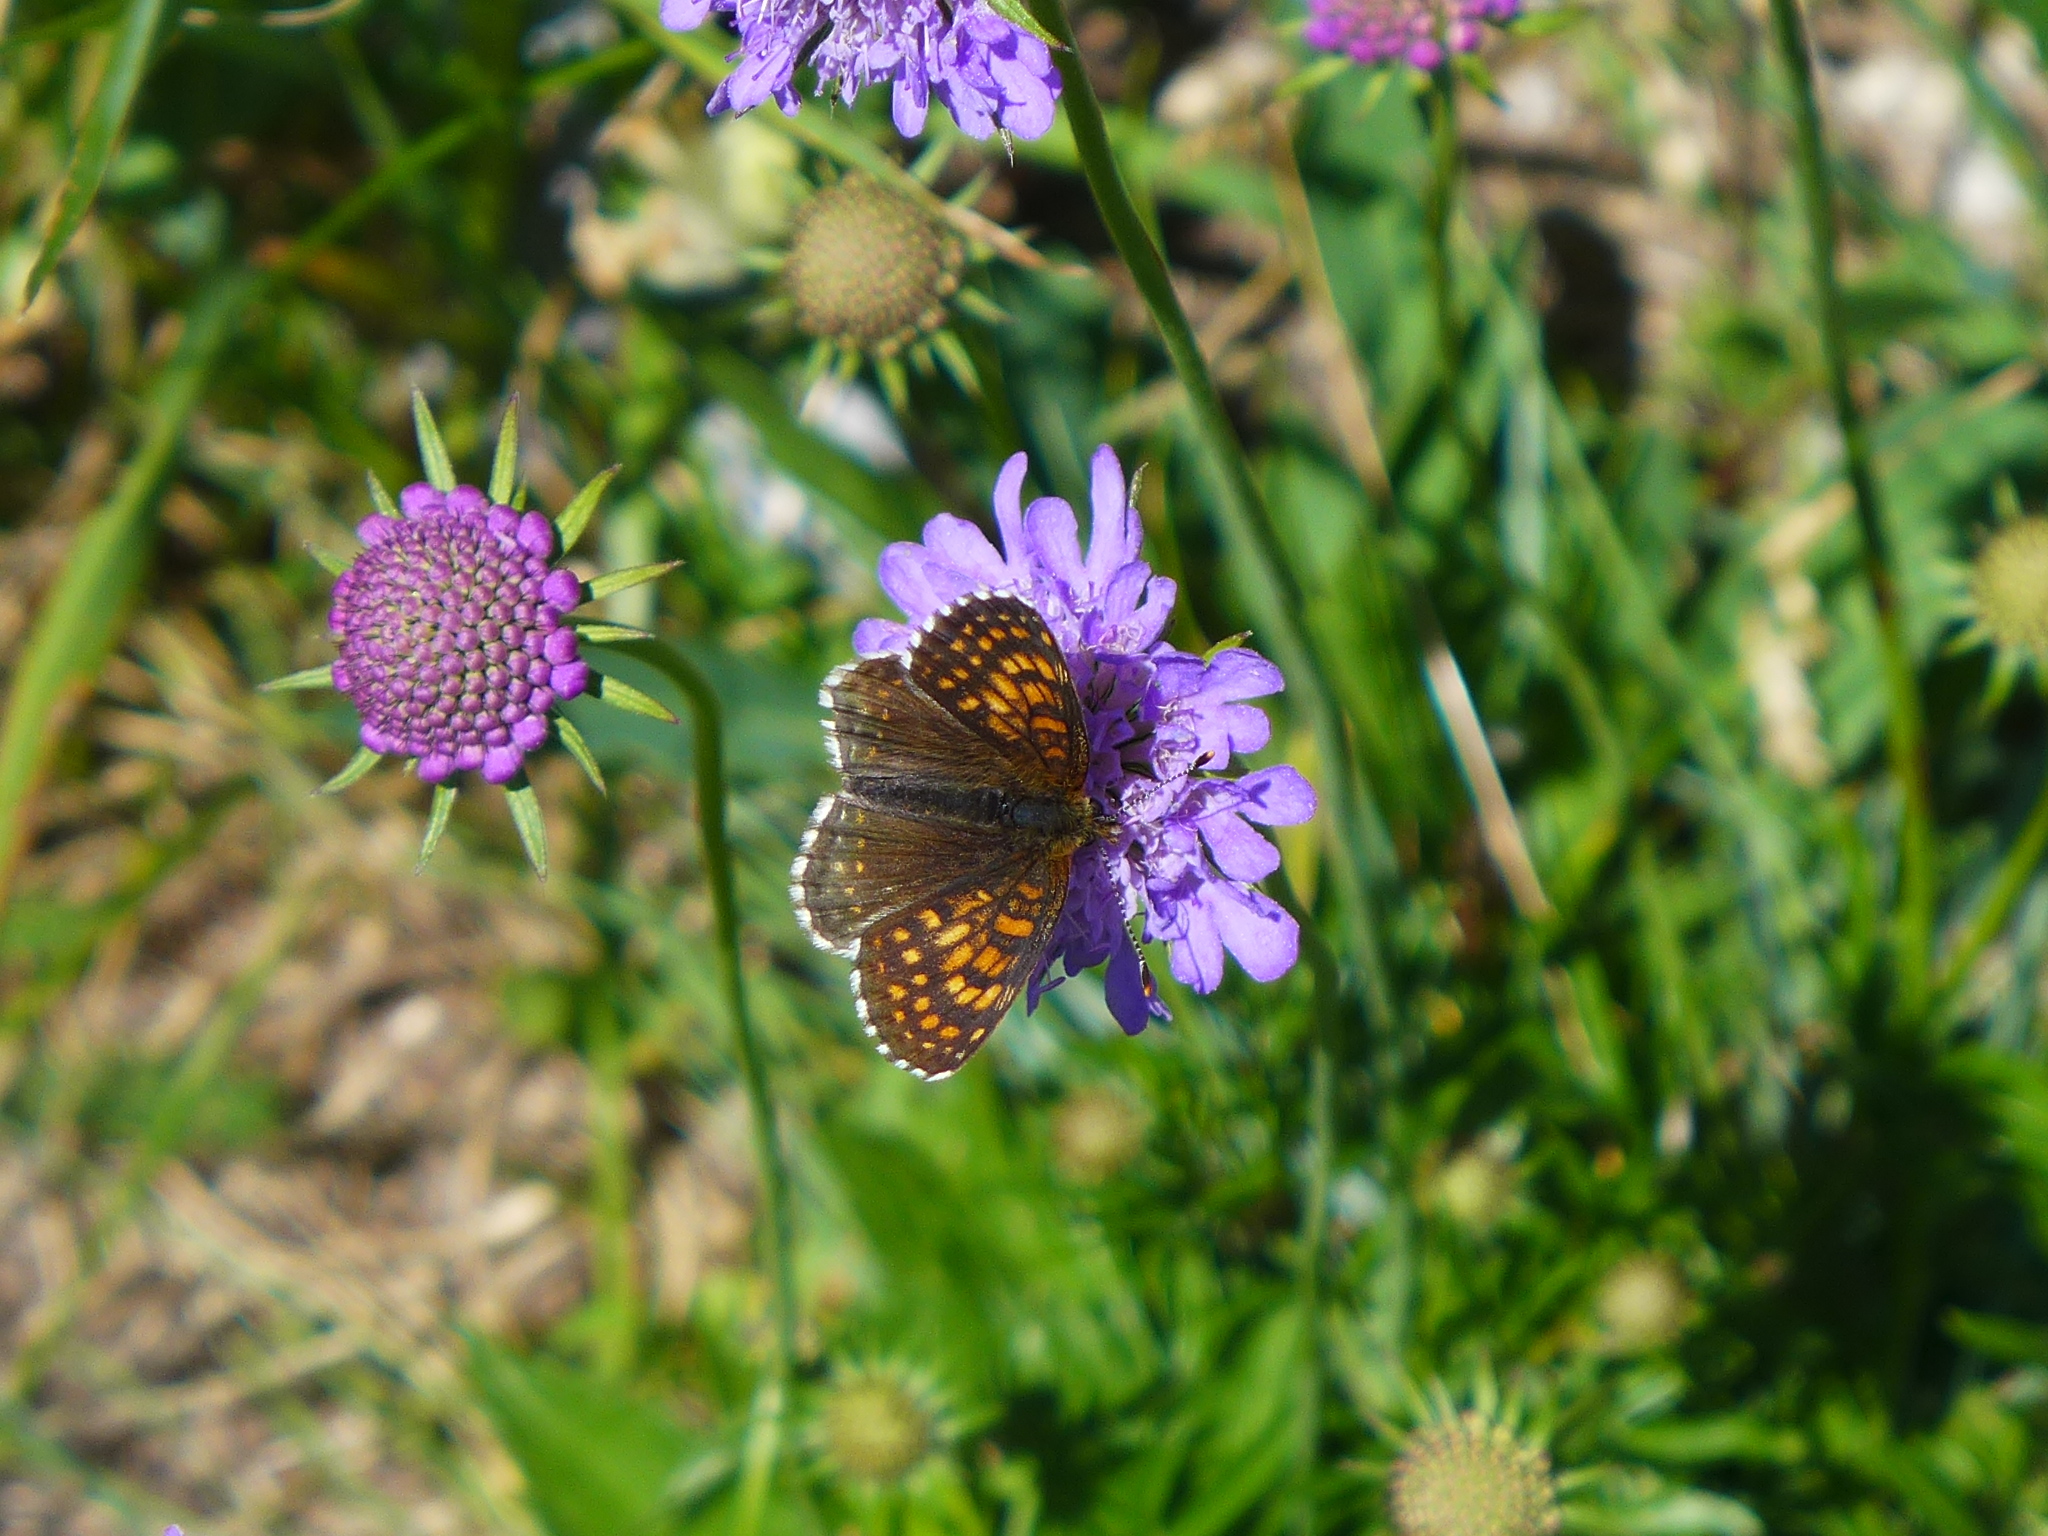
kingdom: Animalia
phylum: Arthropoda
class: Insecta
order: Lepidoptera
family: Nymphalidae
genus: Melitaea
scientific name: Melitaea diamina
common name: False heath fritillary
